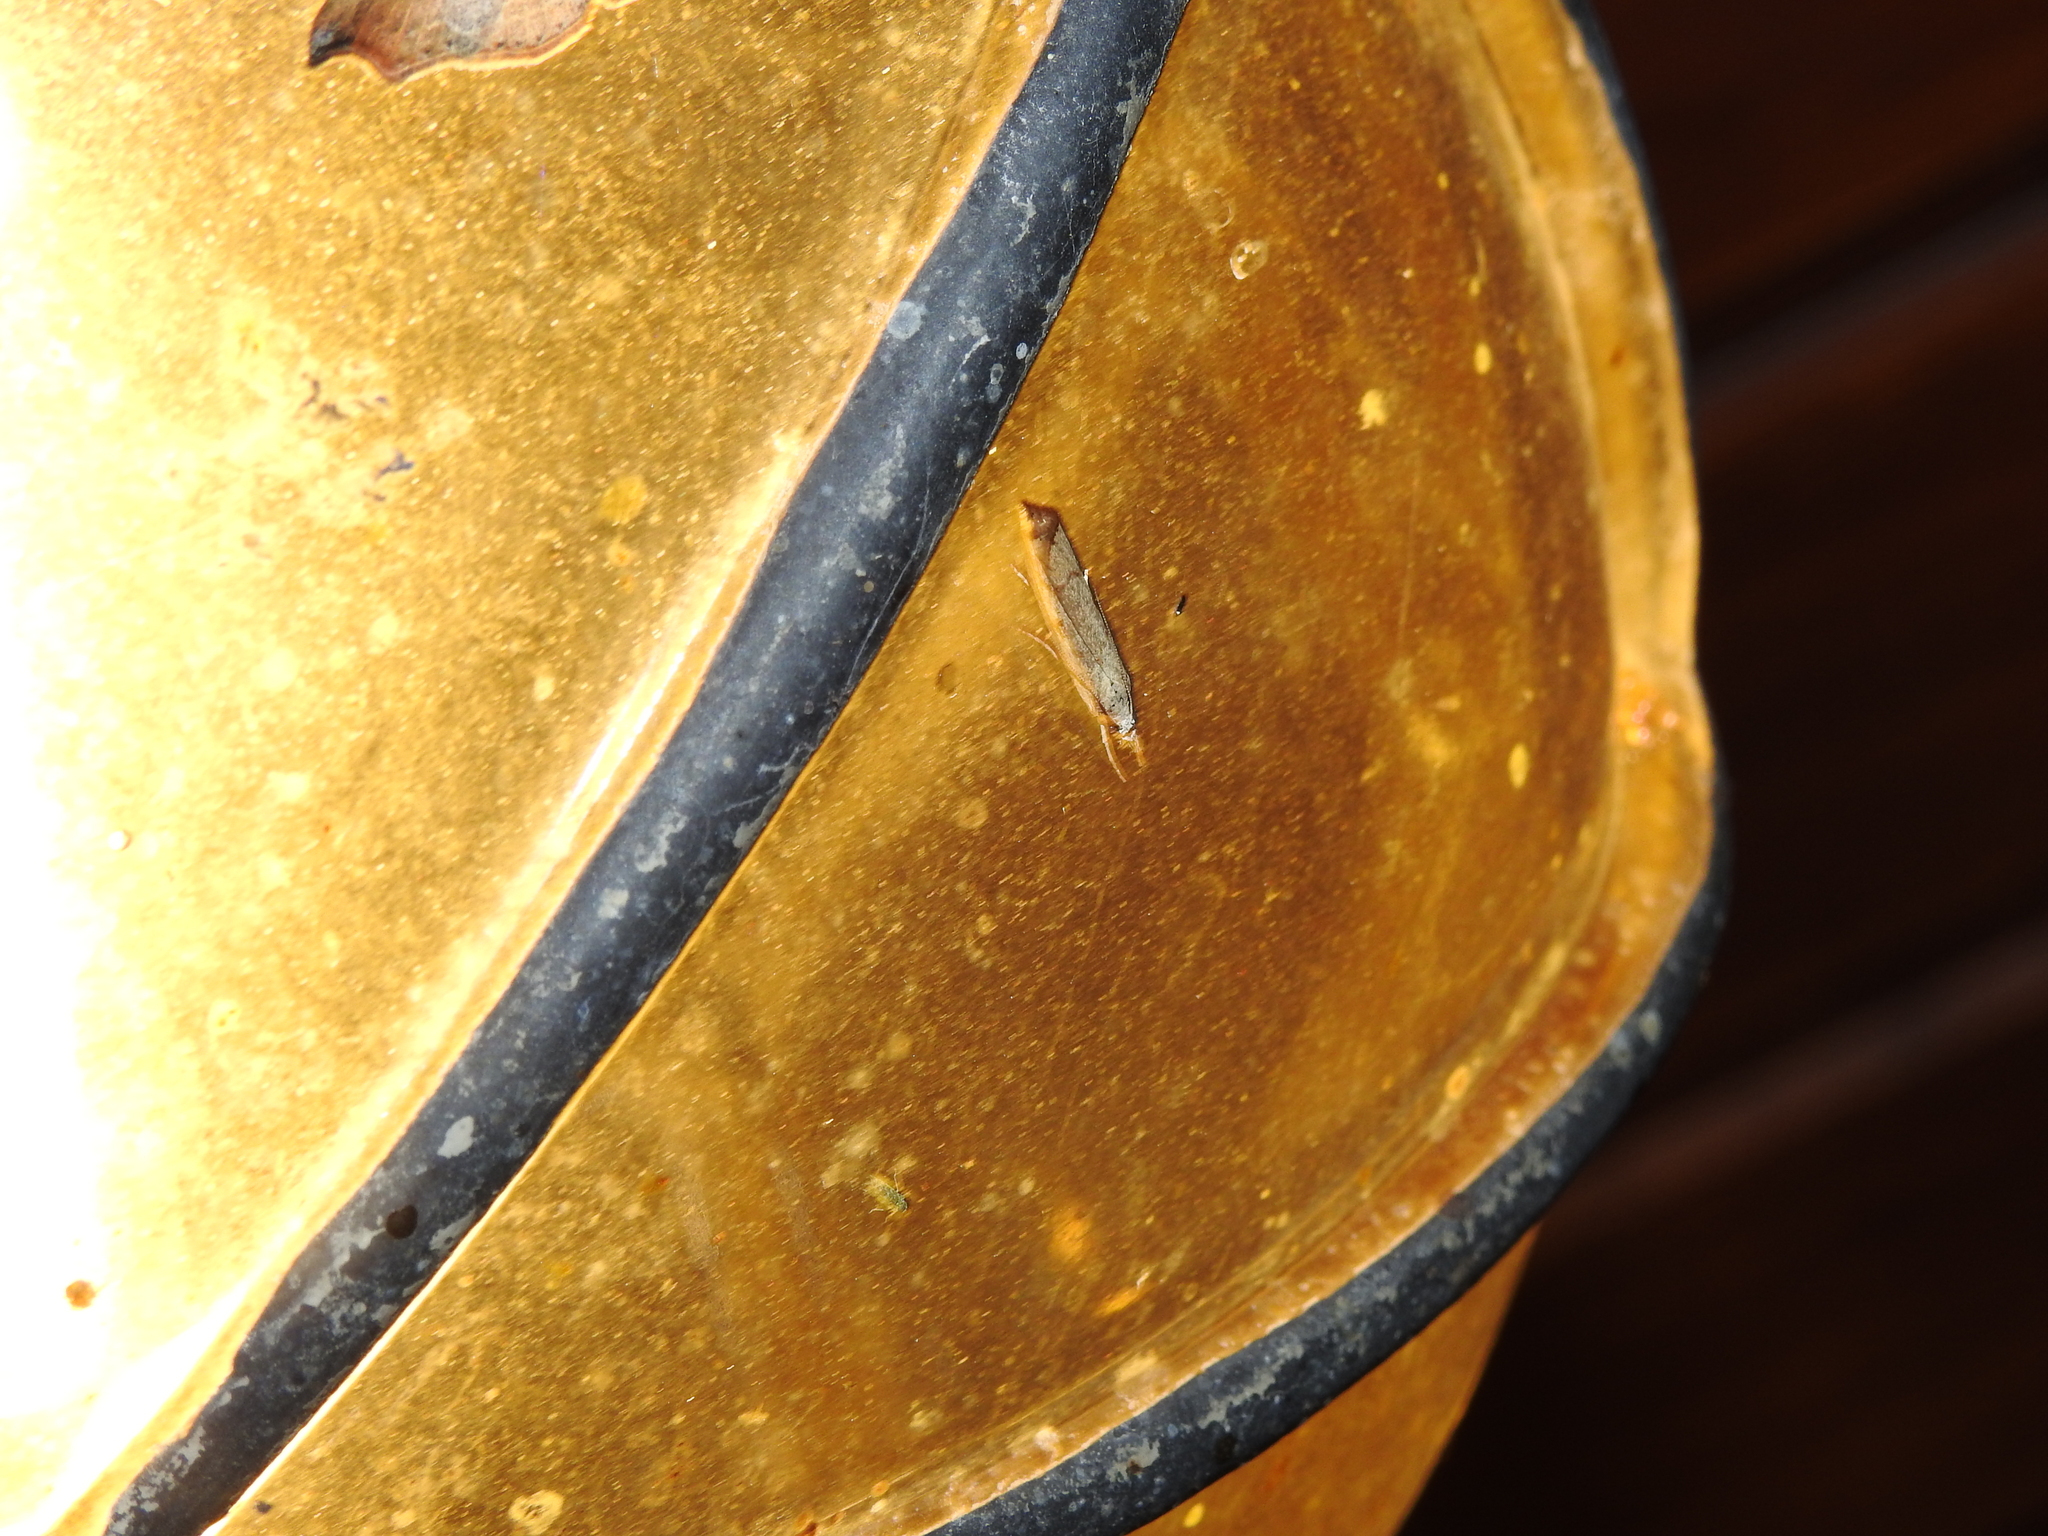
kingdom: Animalia
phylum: Arthropoda
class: Insecta
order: Lepidoptera
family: Crambidae
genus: Agriphila
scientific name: Agriphila geniculea
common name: Elbow-stripe grass-veneer
